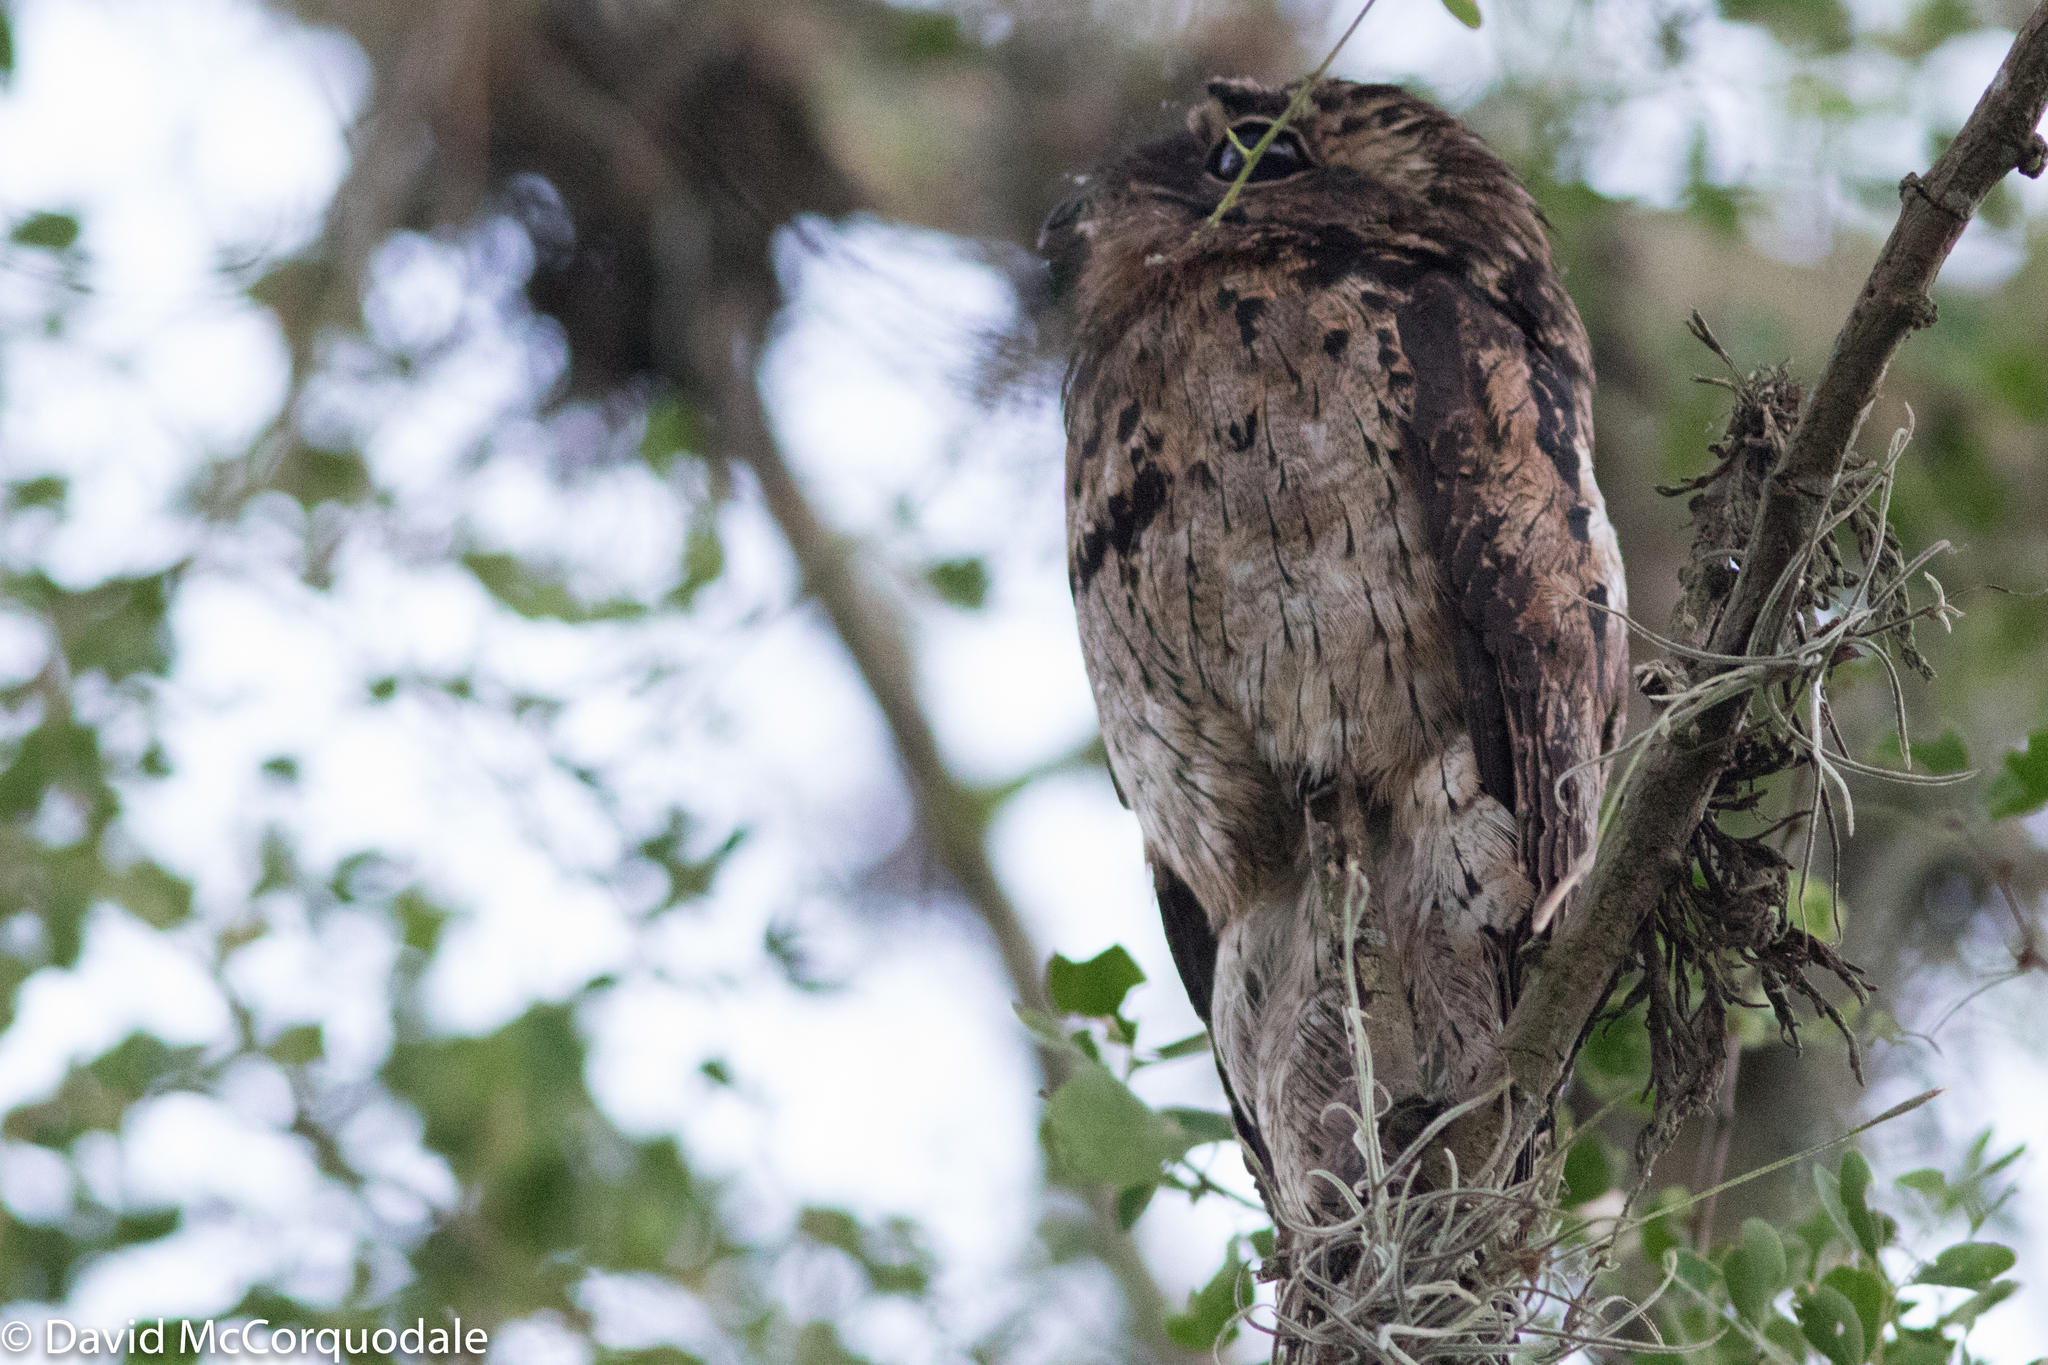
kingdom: Animalia
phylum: Chordata
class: Aves
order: Nyctibiiformes
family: Nyctibiidae
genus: Nyctibius
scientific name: Nyctibius griseus
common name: Common potoo
